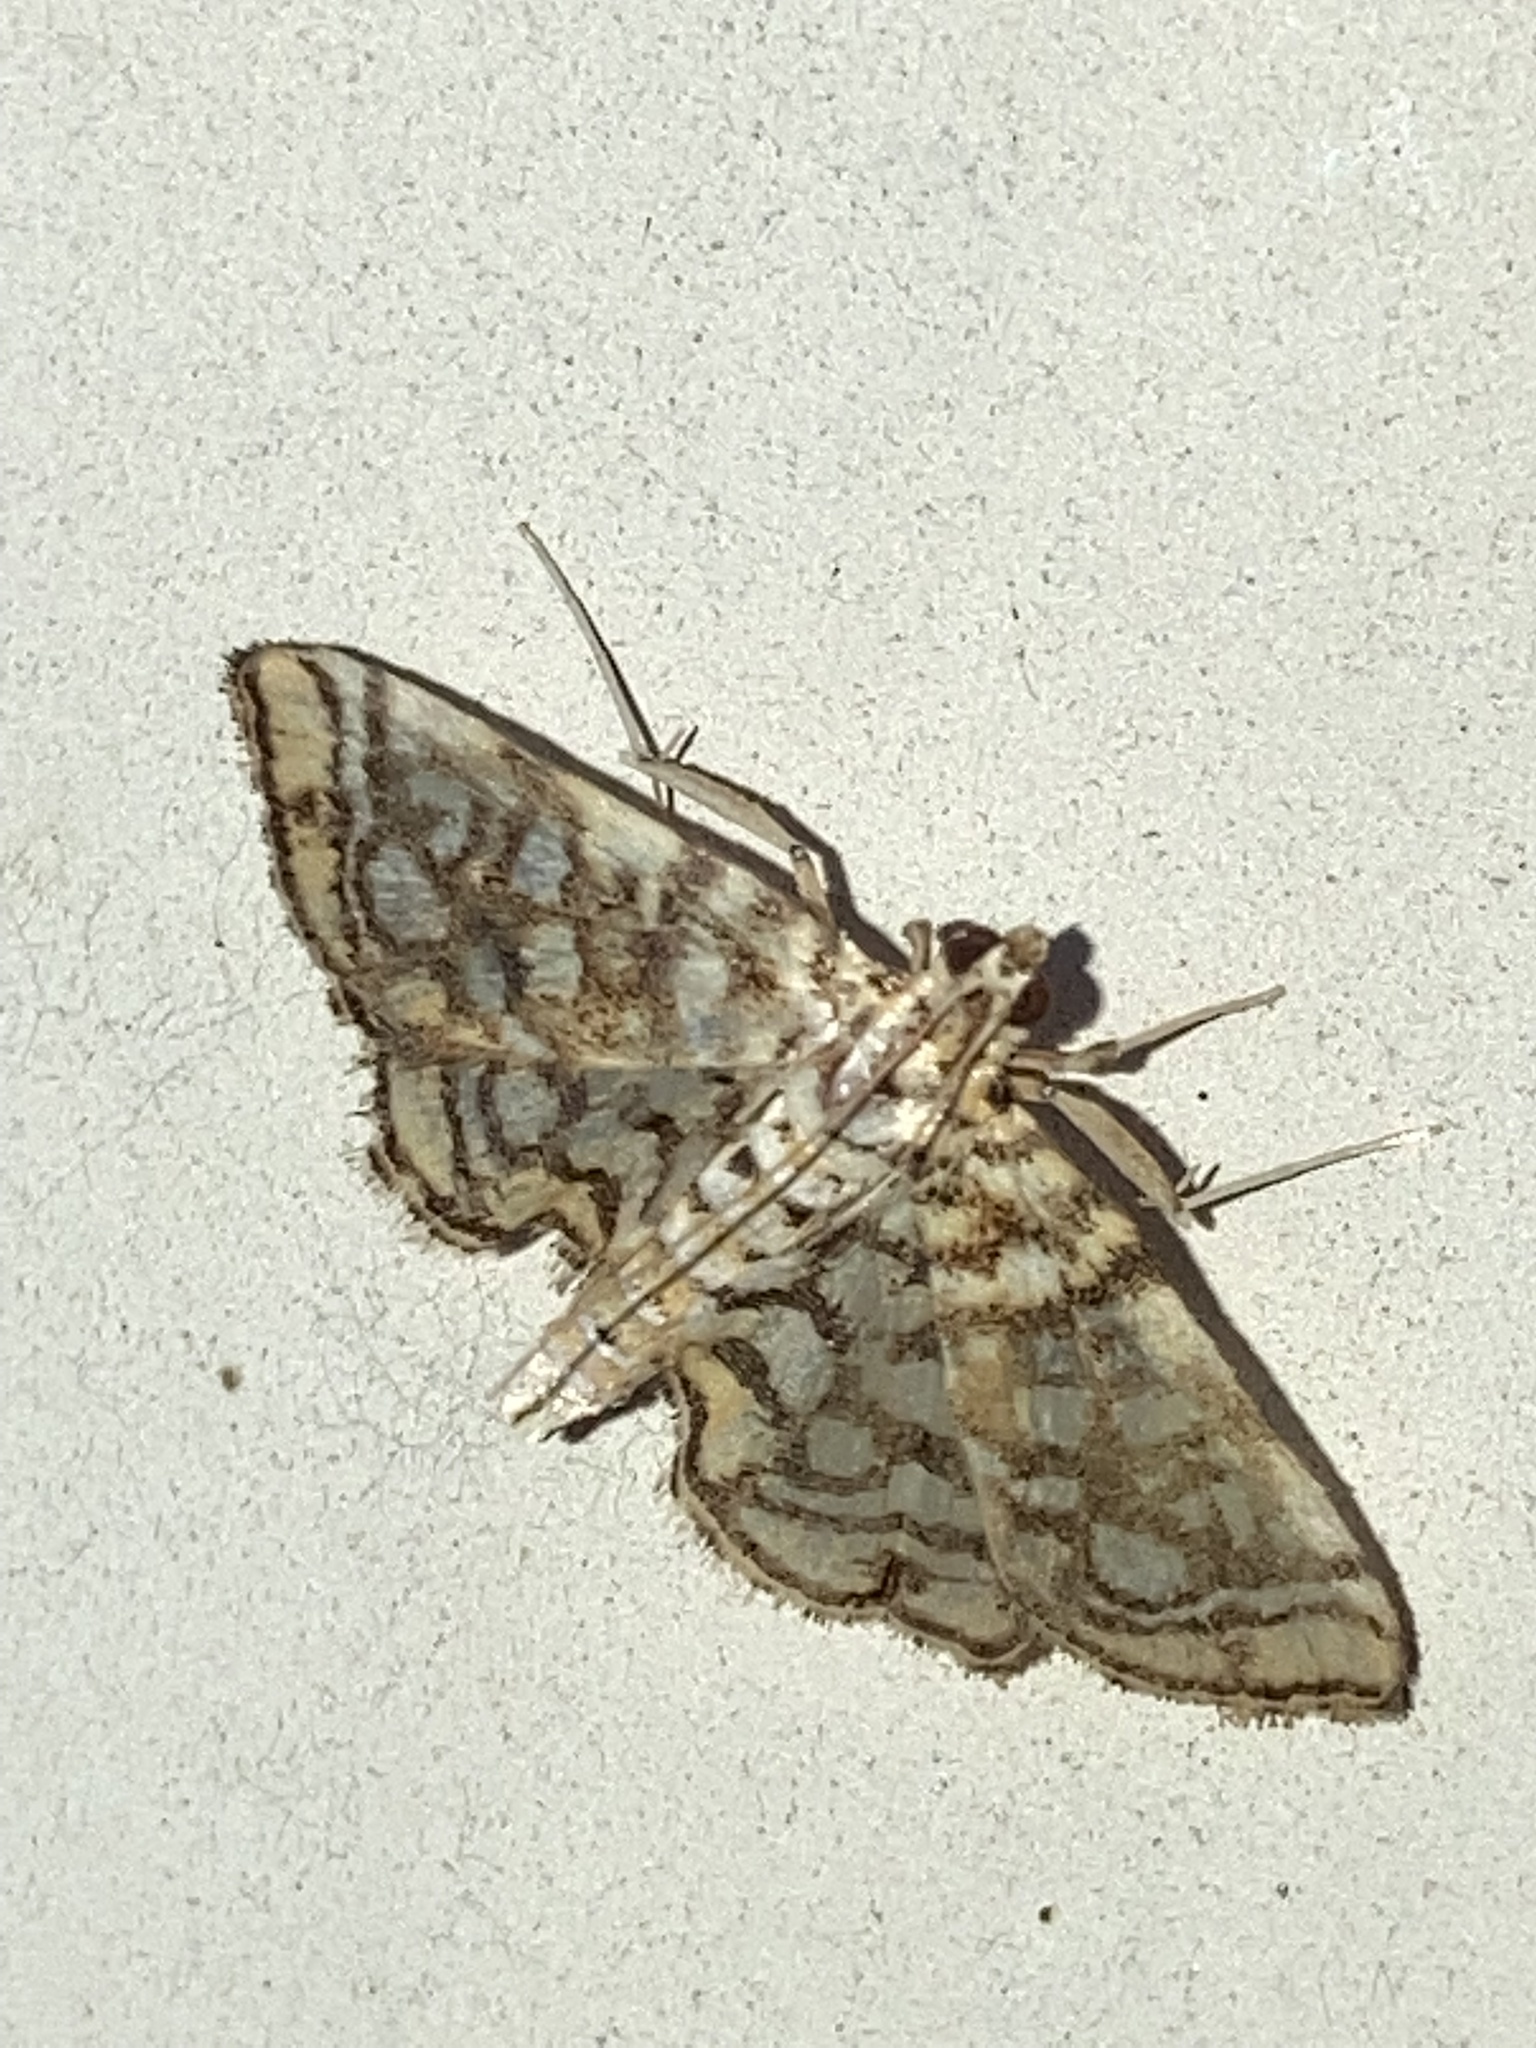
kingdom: Animalia
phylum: Arthropoda
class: Insecta
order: Lepidoptera
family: Crambidae
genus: Lygropia
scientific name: Lygropia rivulalis
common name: Bog lygropia moth
